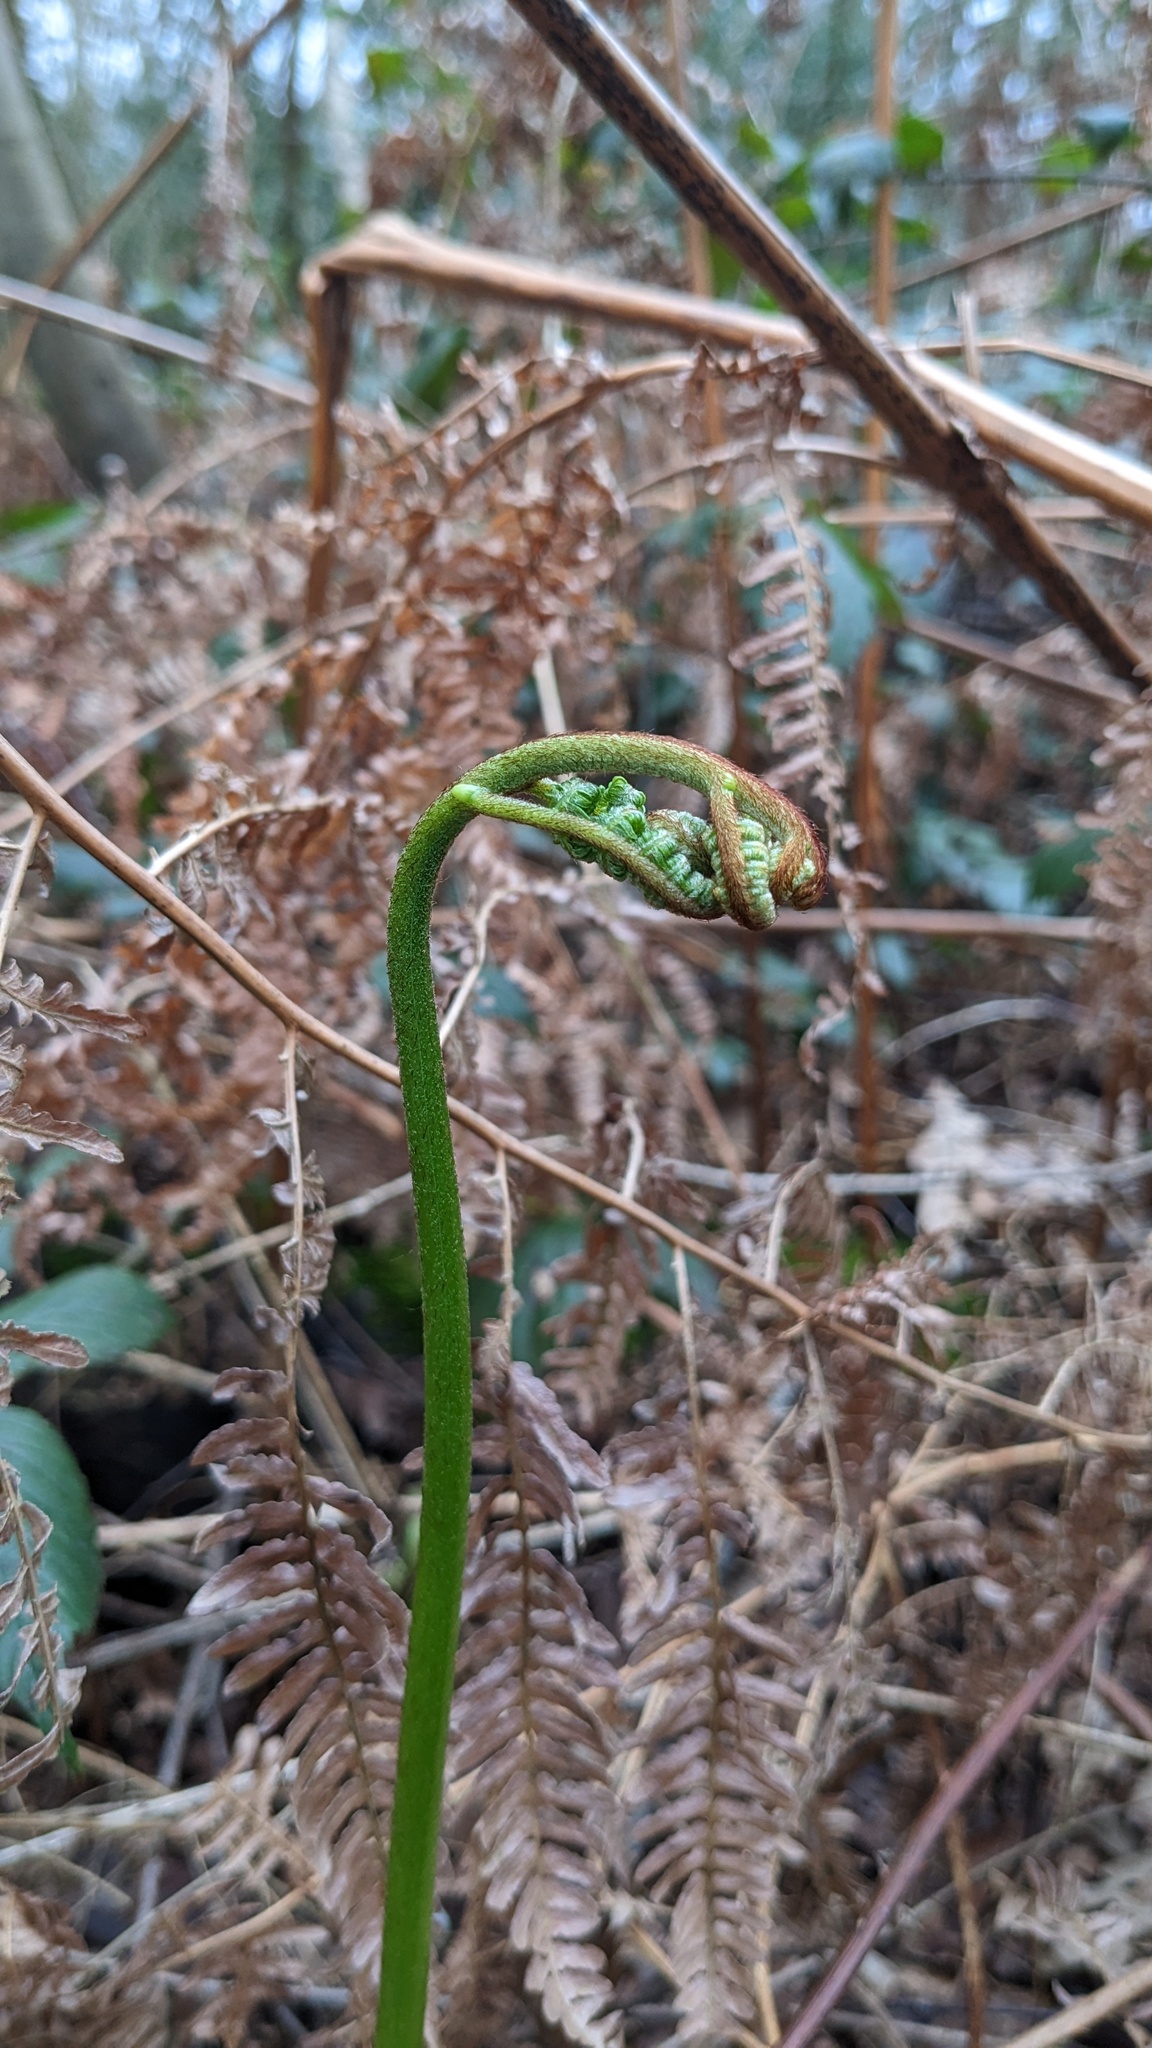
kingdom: Plantae
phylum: Tracheophyta
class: Polypodiopsida
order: Polypodiales
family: Dennstaedtiaceae
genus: Pteridium
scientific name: Pteridium aquilinum
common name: Bracken
